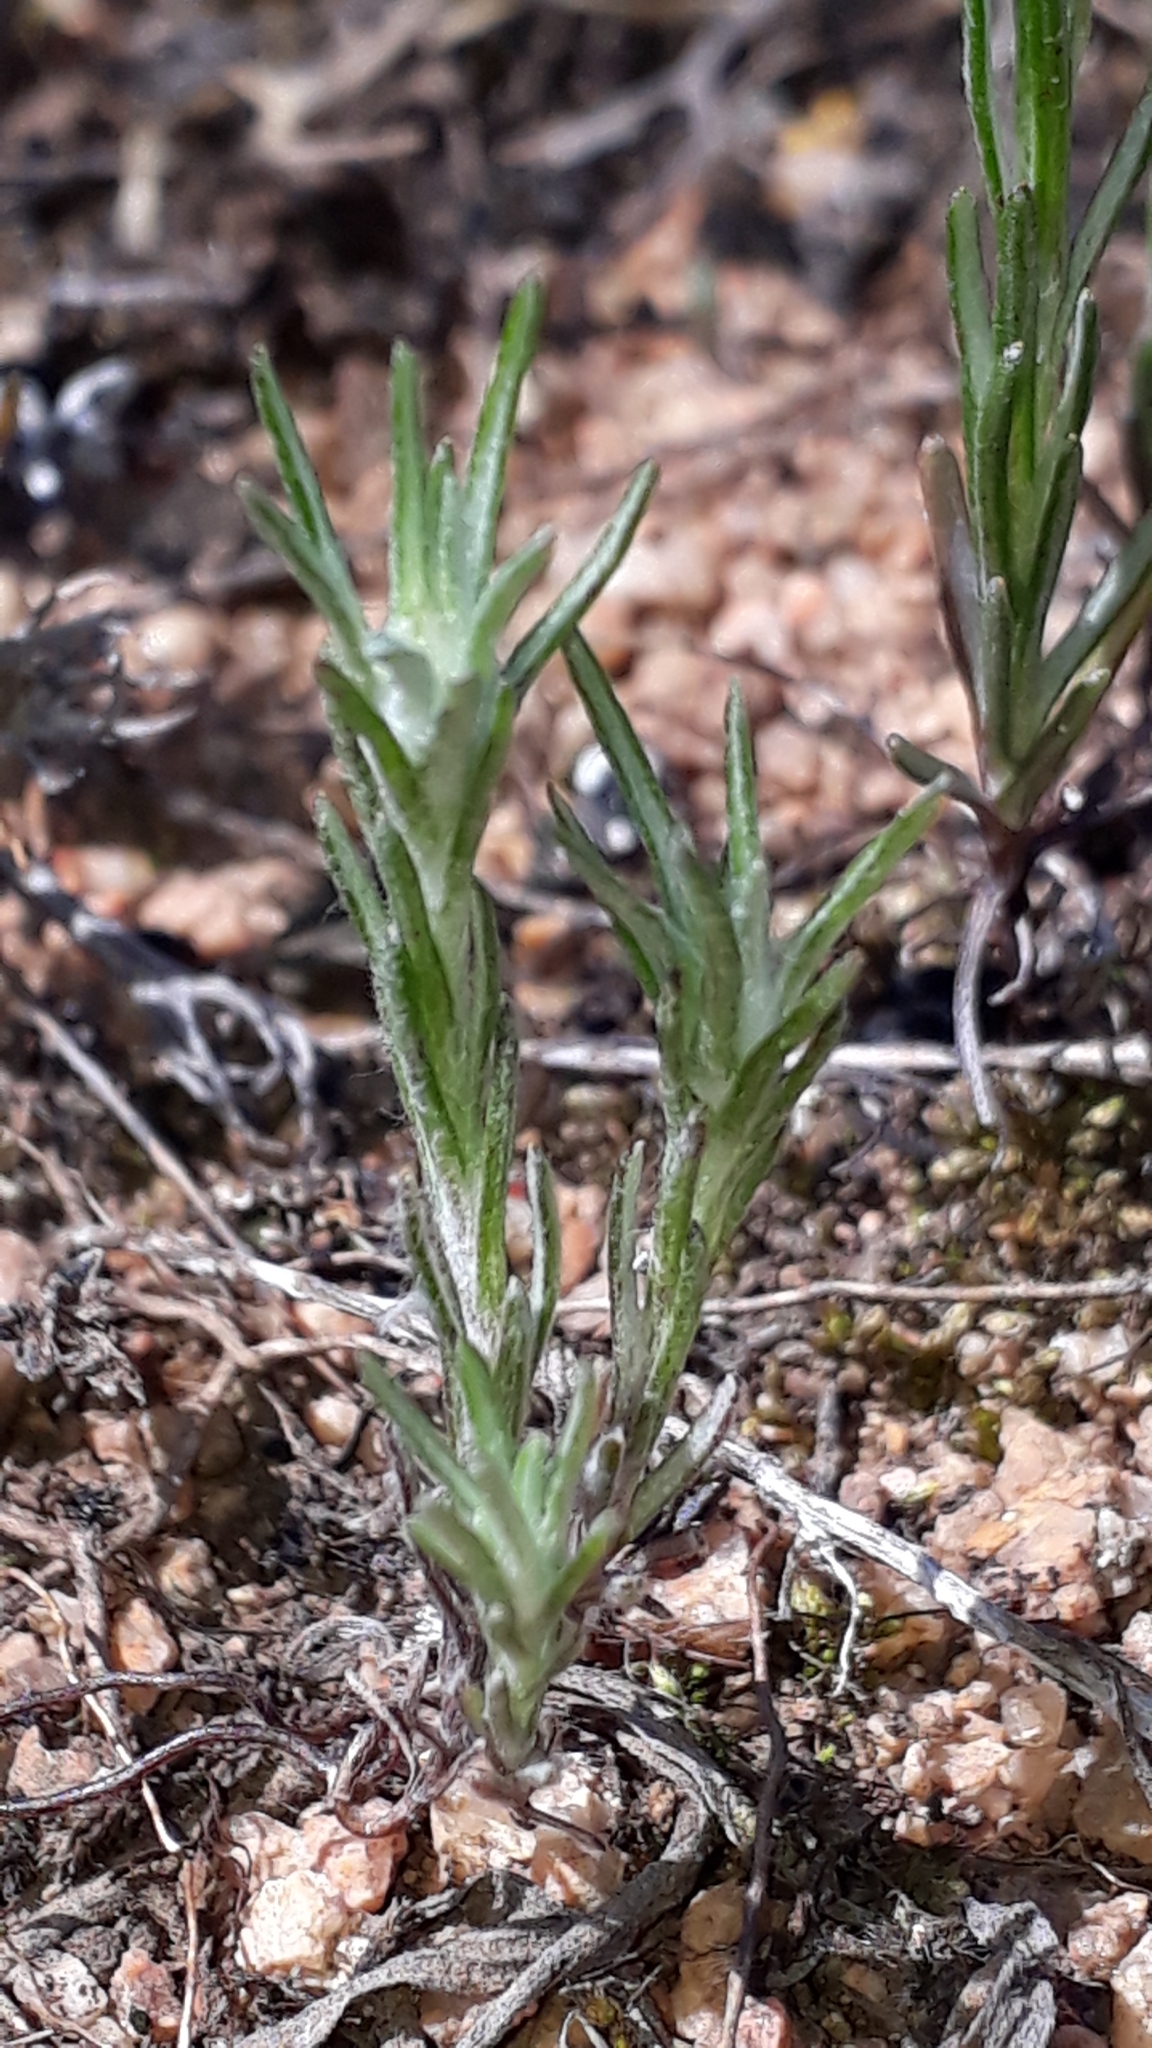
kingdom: Plantae
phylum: Tracheophyta
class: Magnoliopsida
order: Asterales
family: Asteraceae
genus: Logfia
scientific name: Logfia gallica
